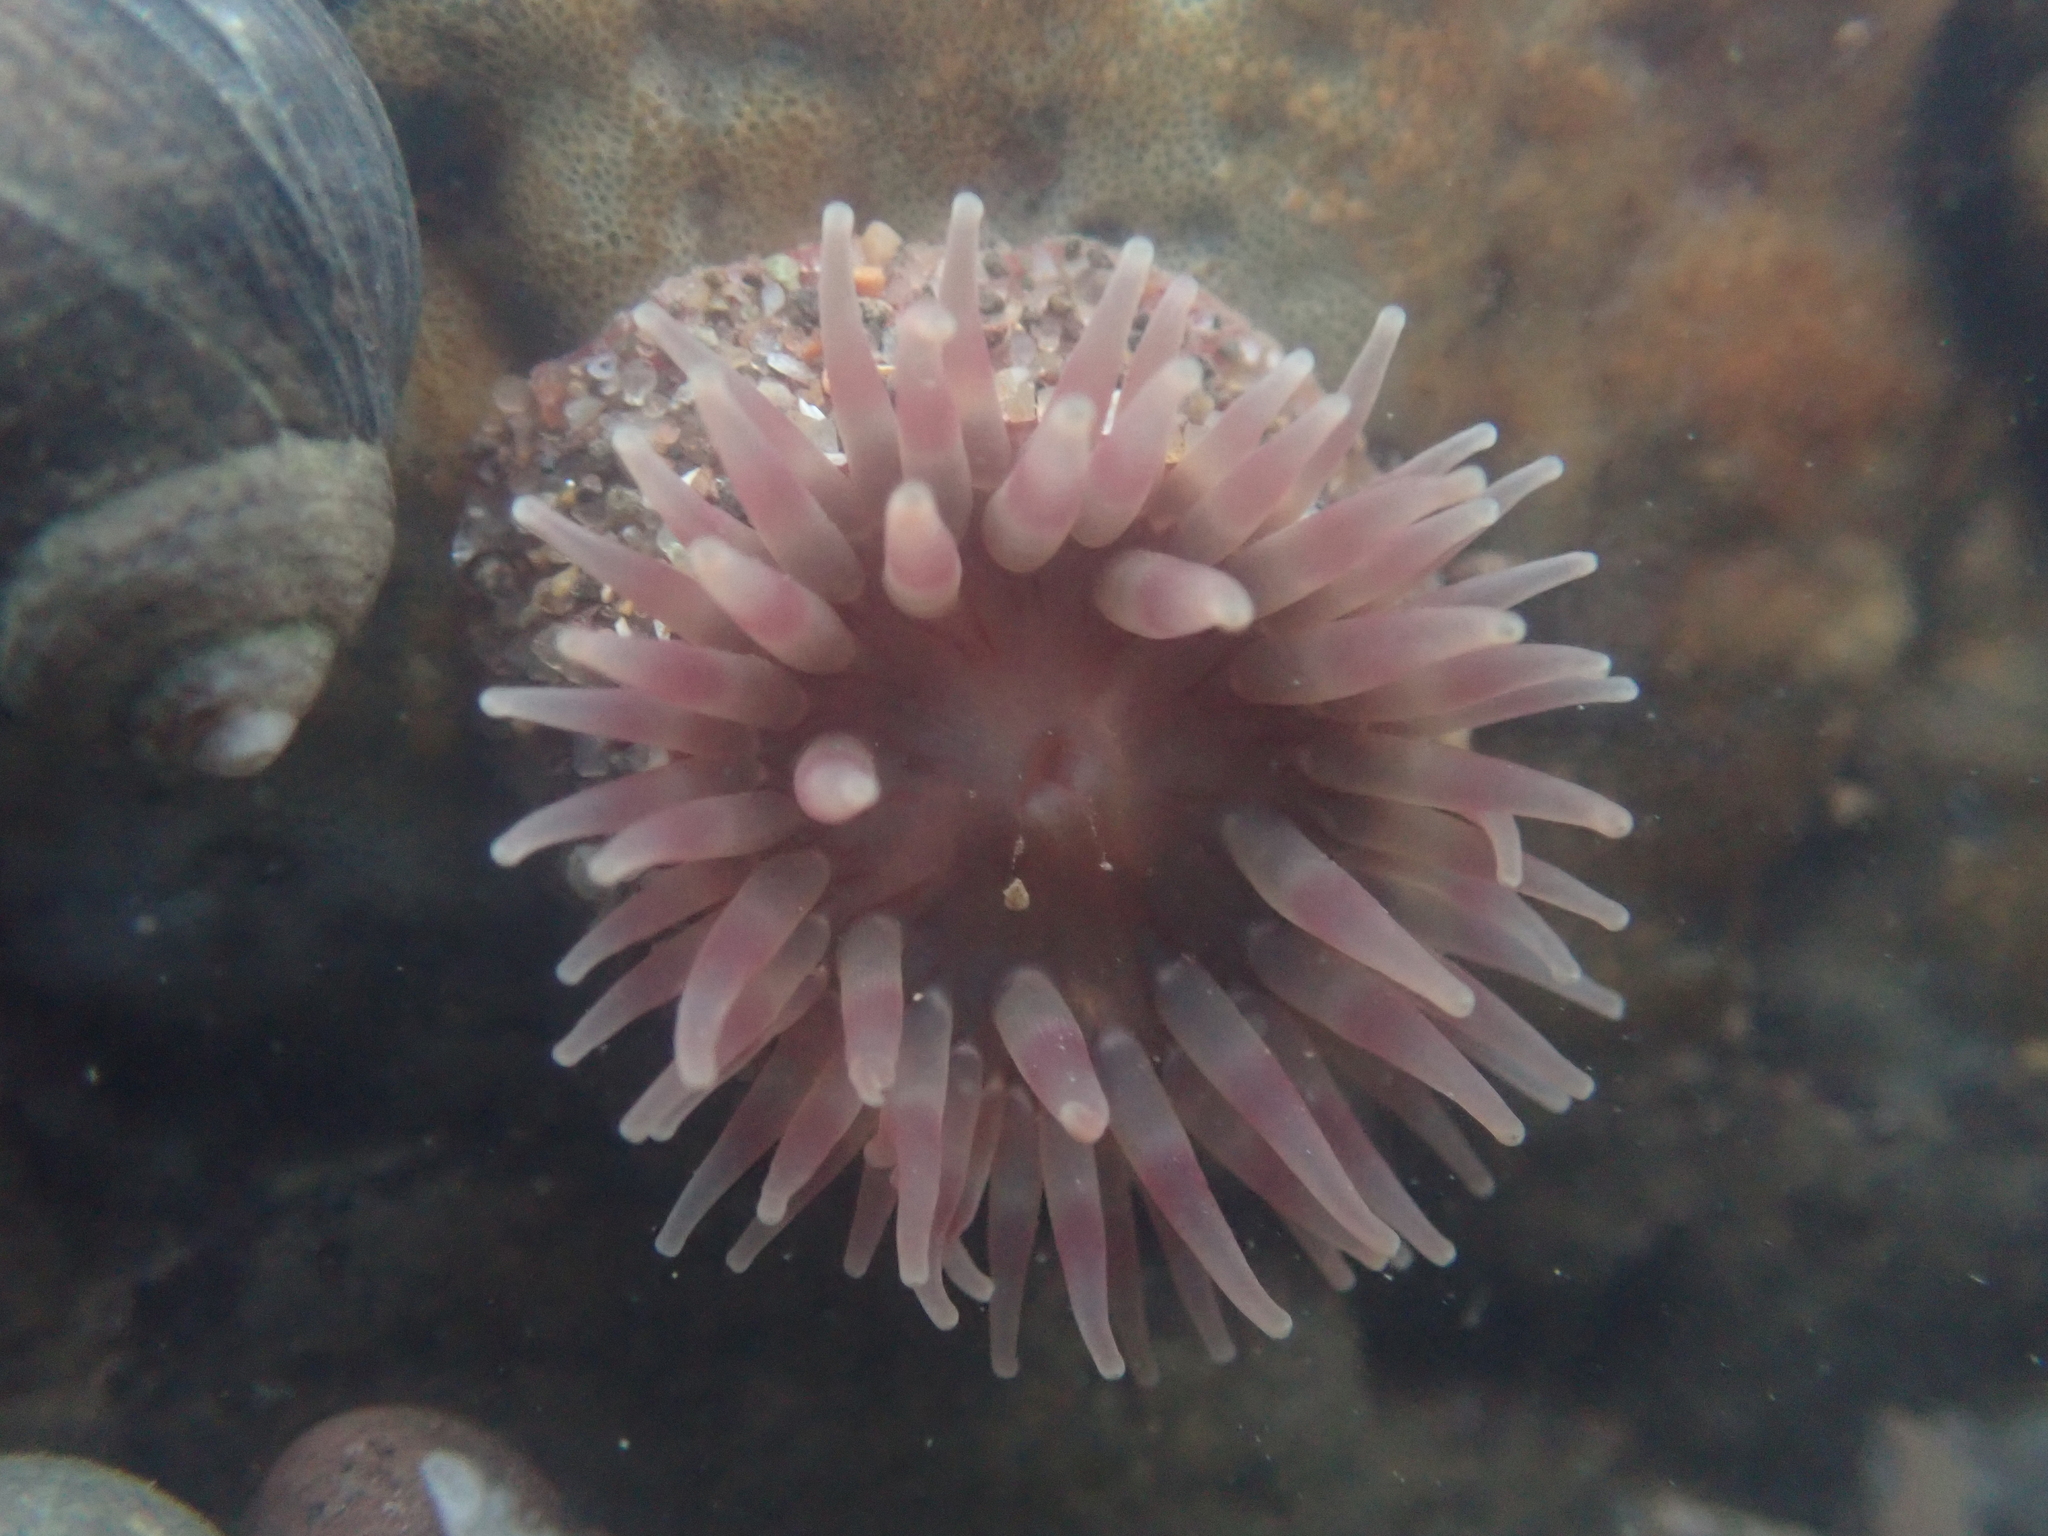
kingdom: Animalia
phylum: Cnidaria
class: Anthozoa
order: Actiniaria
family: Actiniidae
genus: Urticina
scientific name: Urticina crassicornis
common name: Mottled anemone
